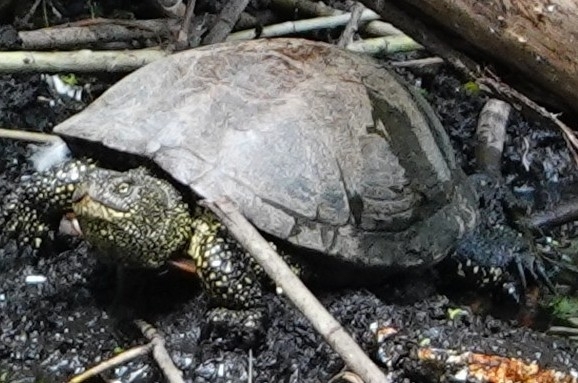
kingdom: Animalia
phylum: Chordata
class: Testudines
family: Emydidae
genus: Emys
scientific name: Emys orbicularis
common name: European pond turtle
